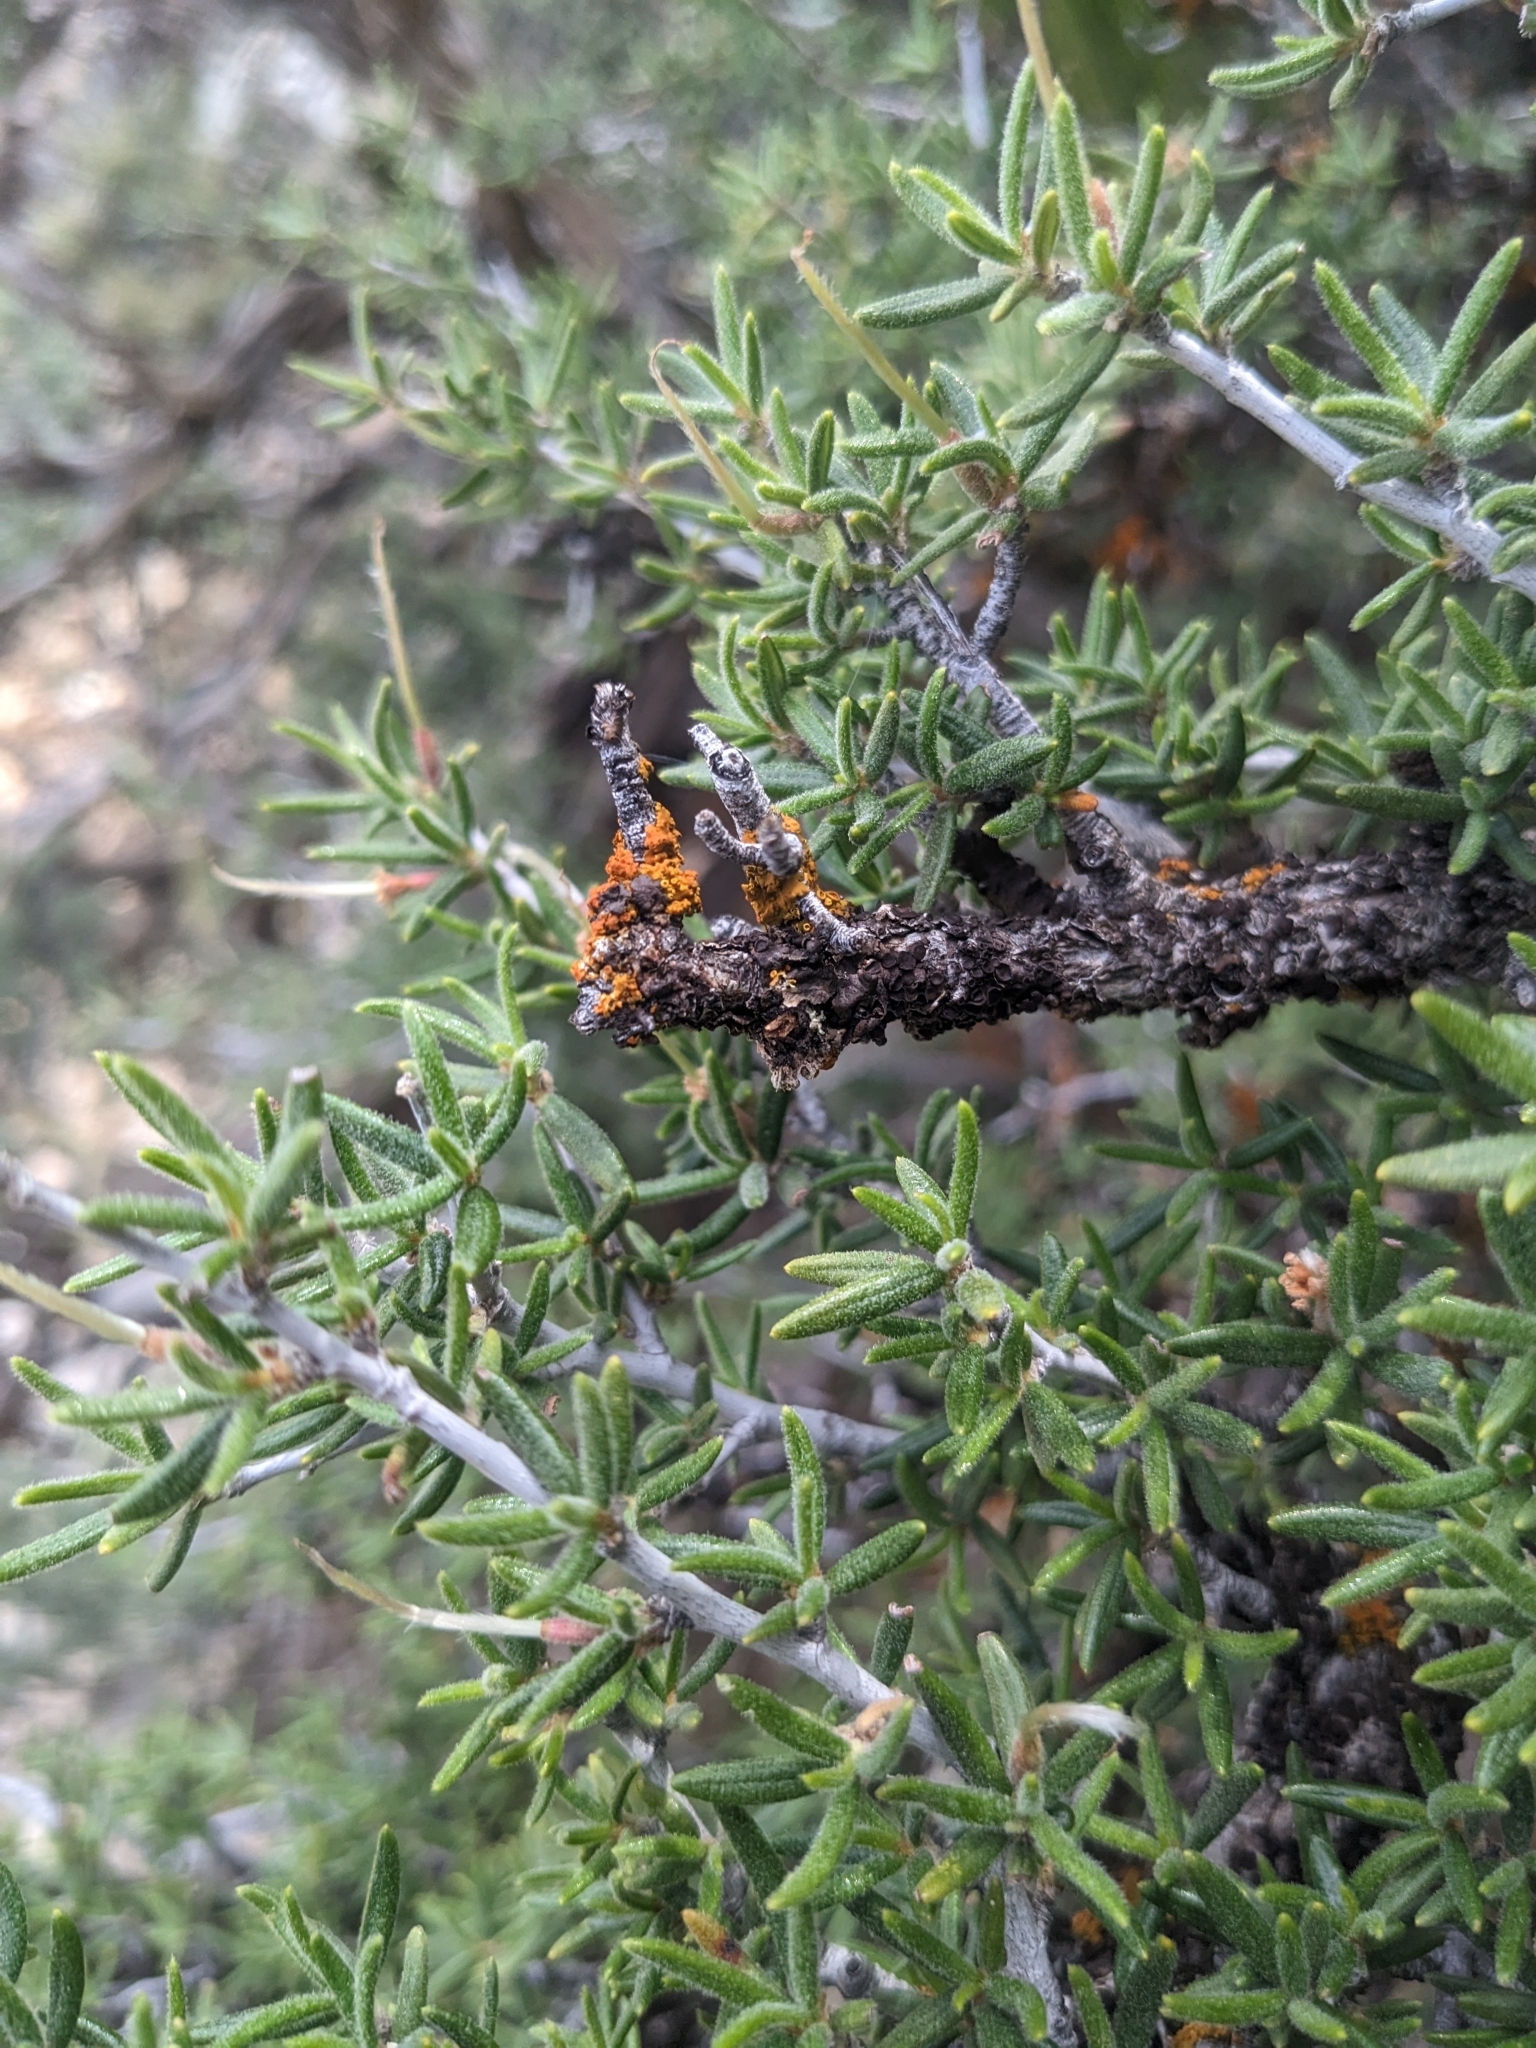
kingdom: Plantae
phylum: Tracheophyta
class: Magnoliopsida
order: Rosales
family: Rosaceae
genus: Cercocarpus
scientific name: Cercocarpus intricatus
